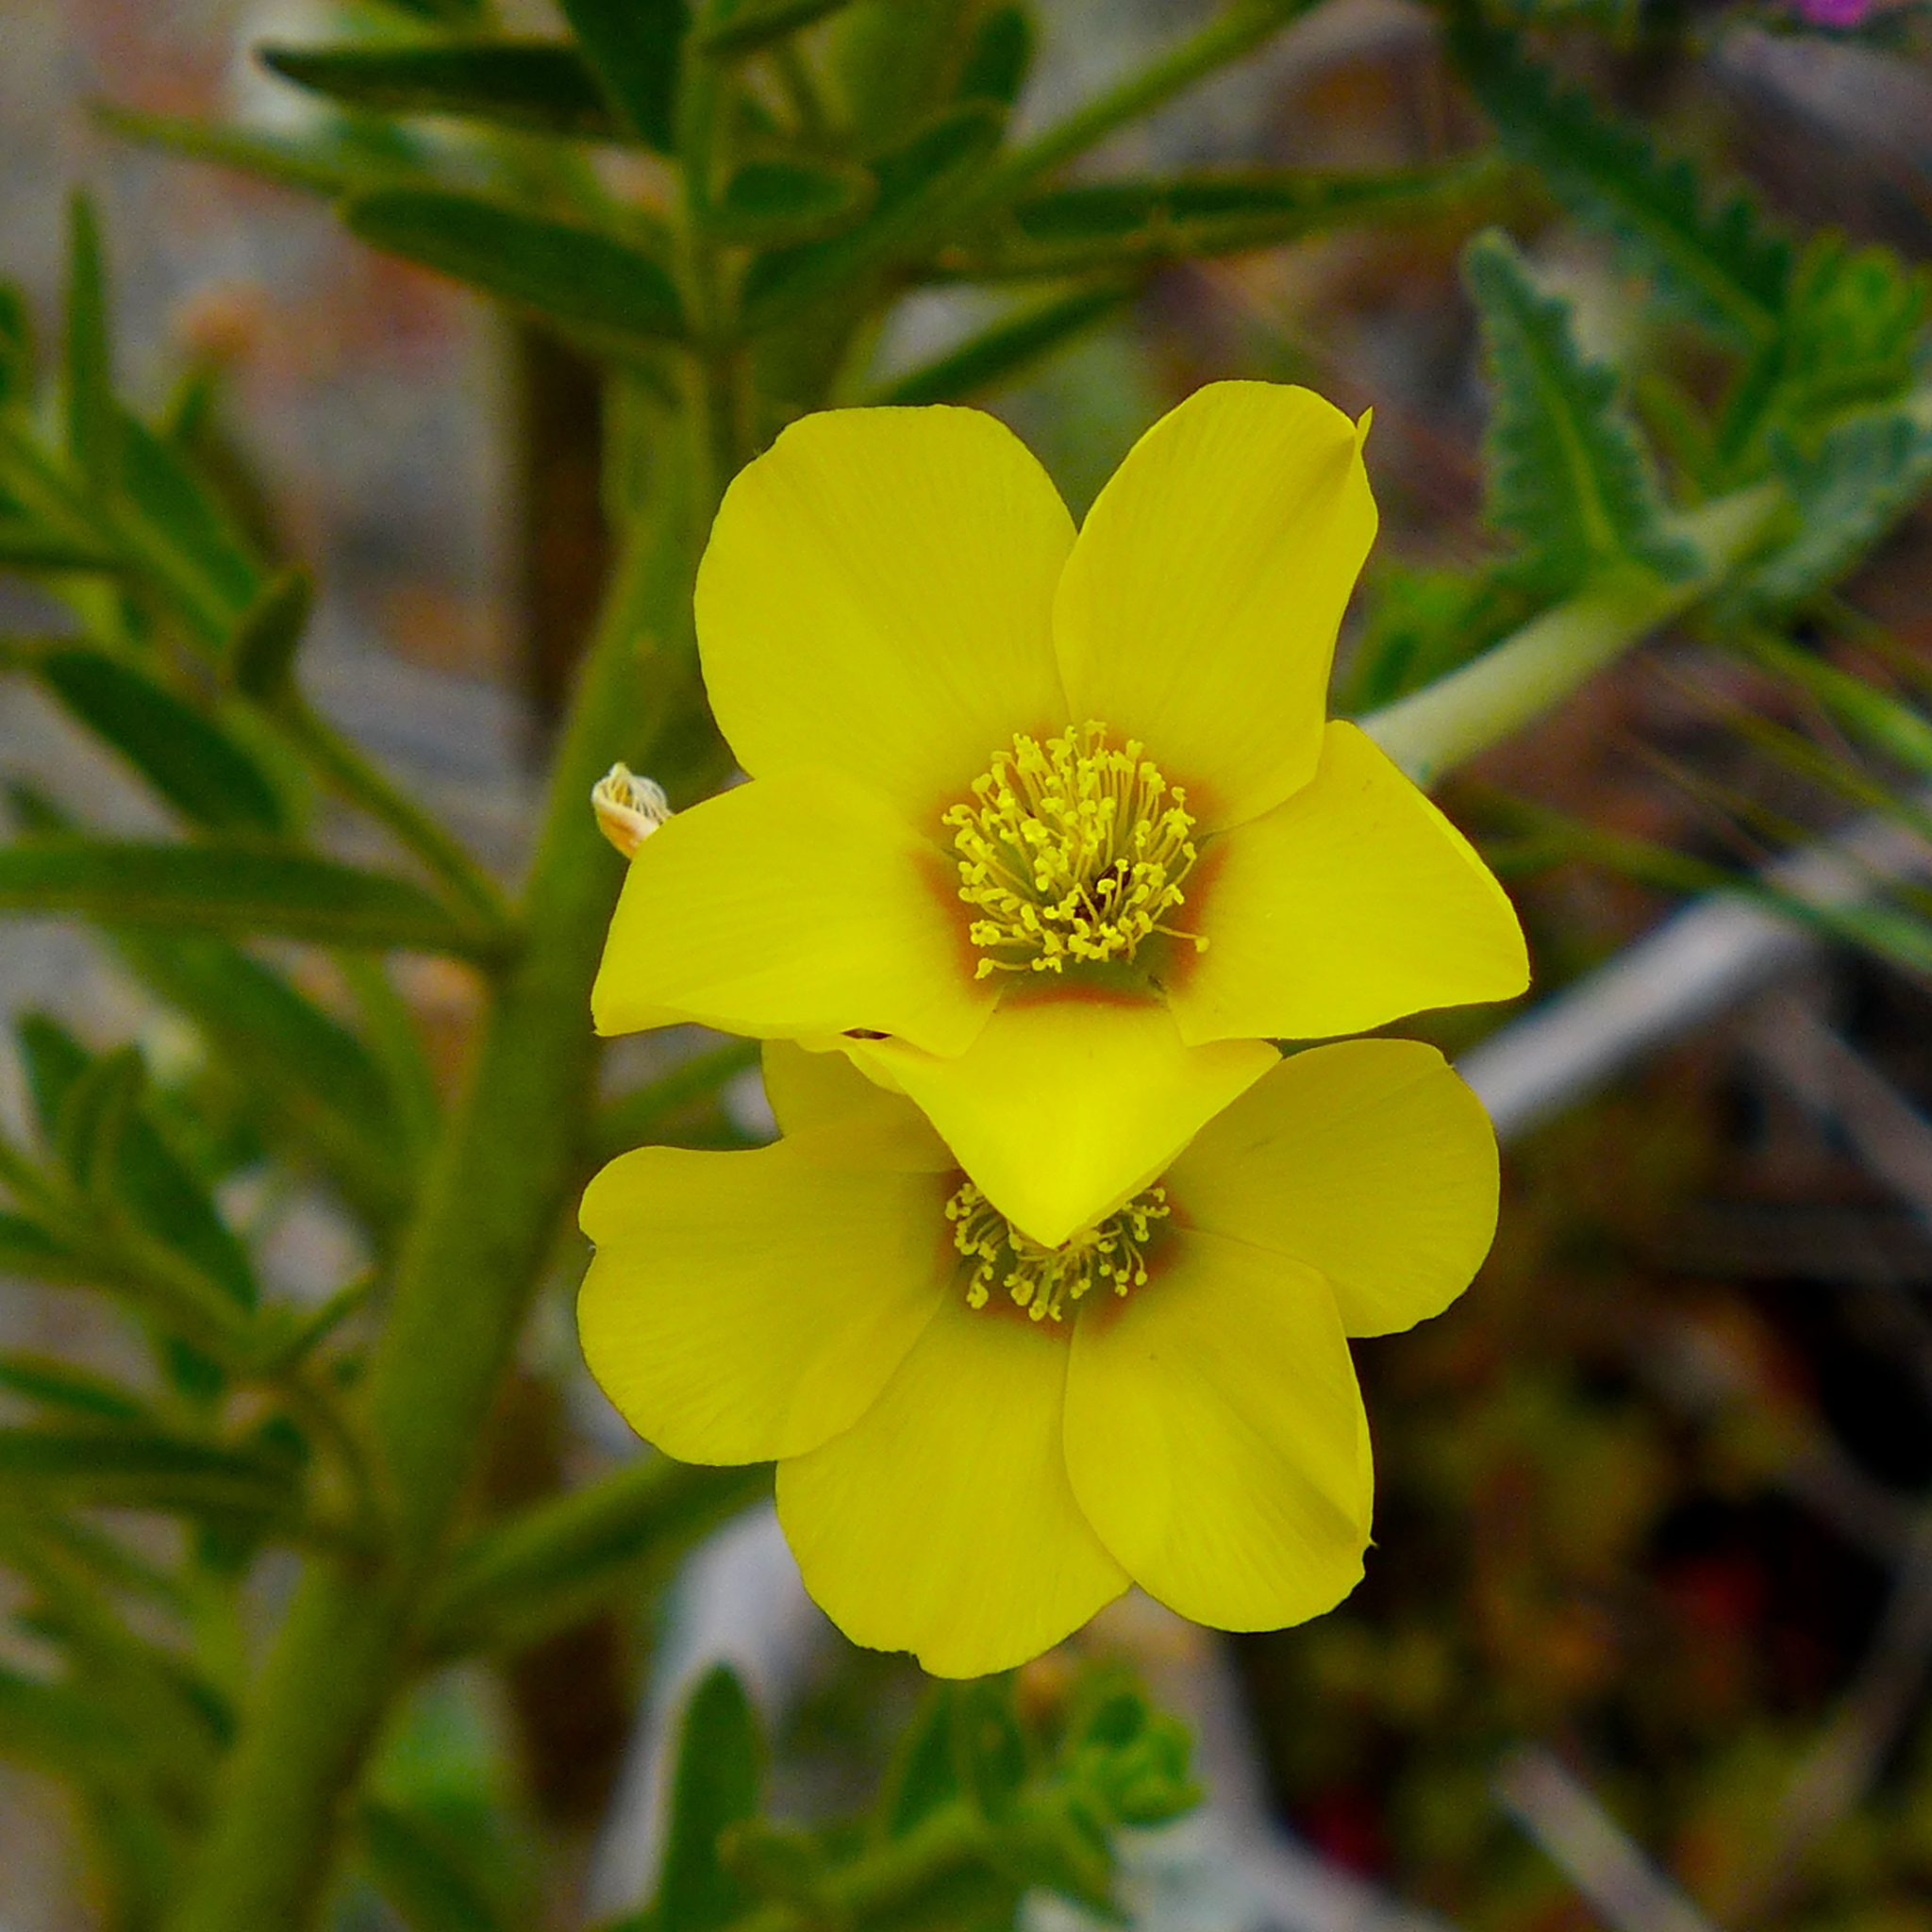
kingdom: Plantae
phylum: Tracheophyta
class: Magnoliopsida
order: Cornales
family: Loasaceae
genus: Mentzelia
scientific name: Mentzelia gracilenta
